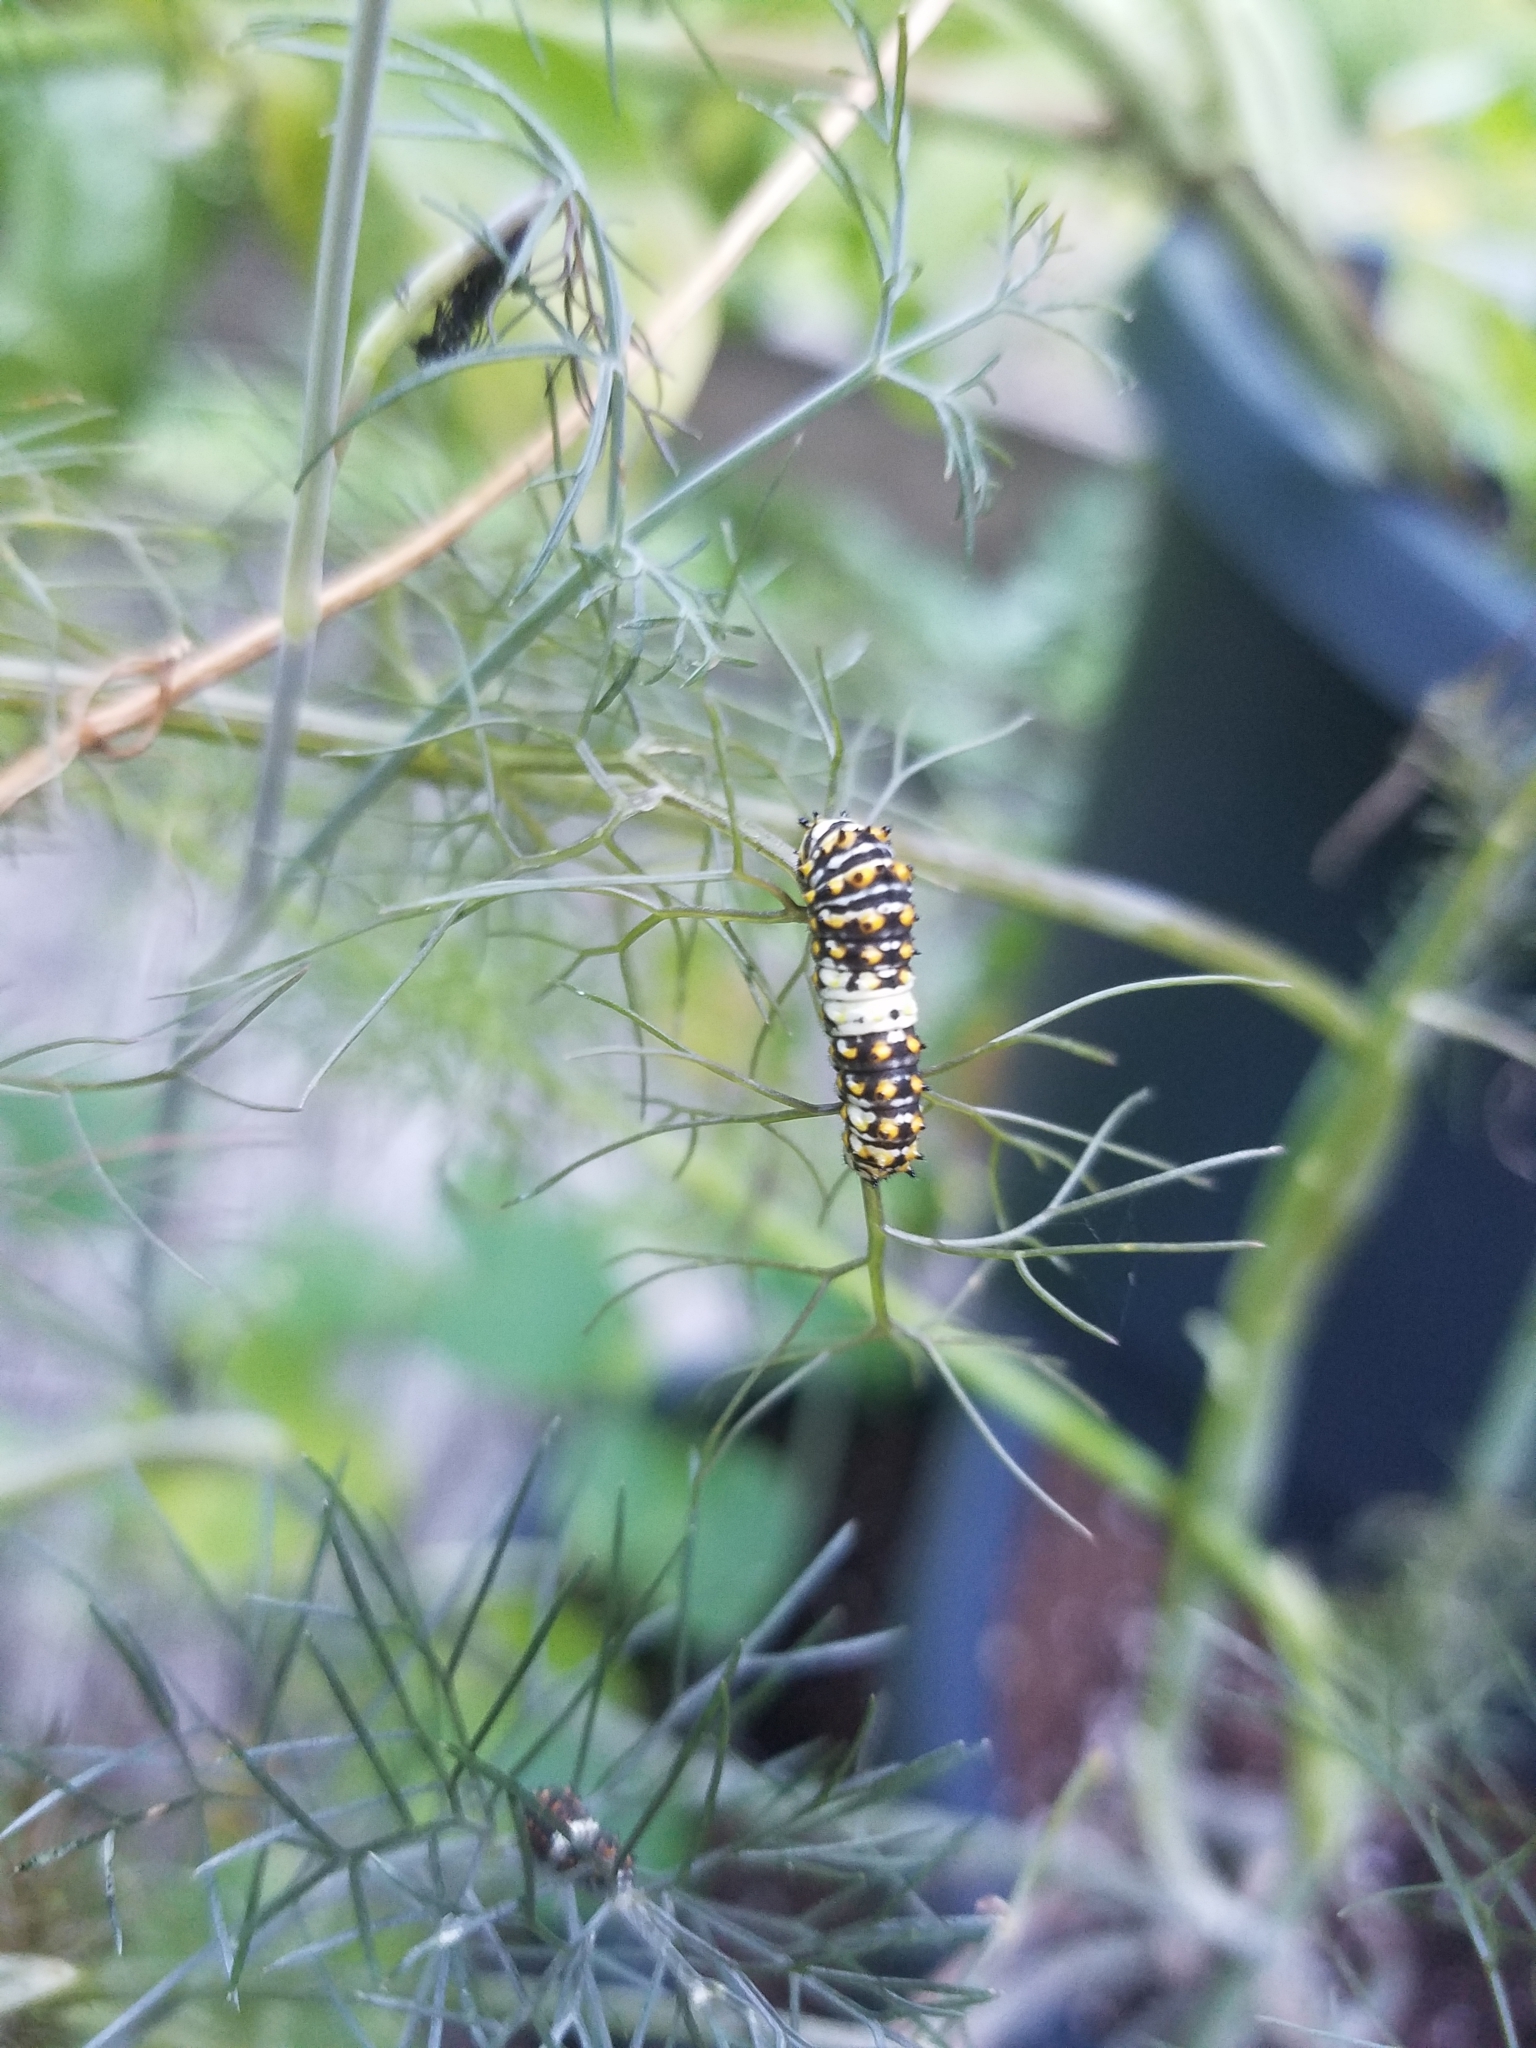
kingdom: Animalia
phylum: Arthropoda
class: Insecta
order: Lepidoptera
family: Papilionidae
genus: Papilio
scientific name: Papilio polyxenes
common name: Black swallowtail
